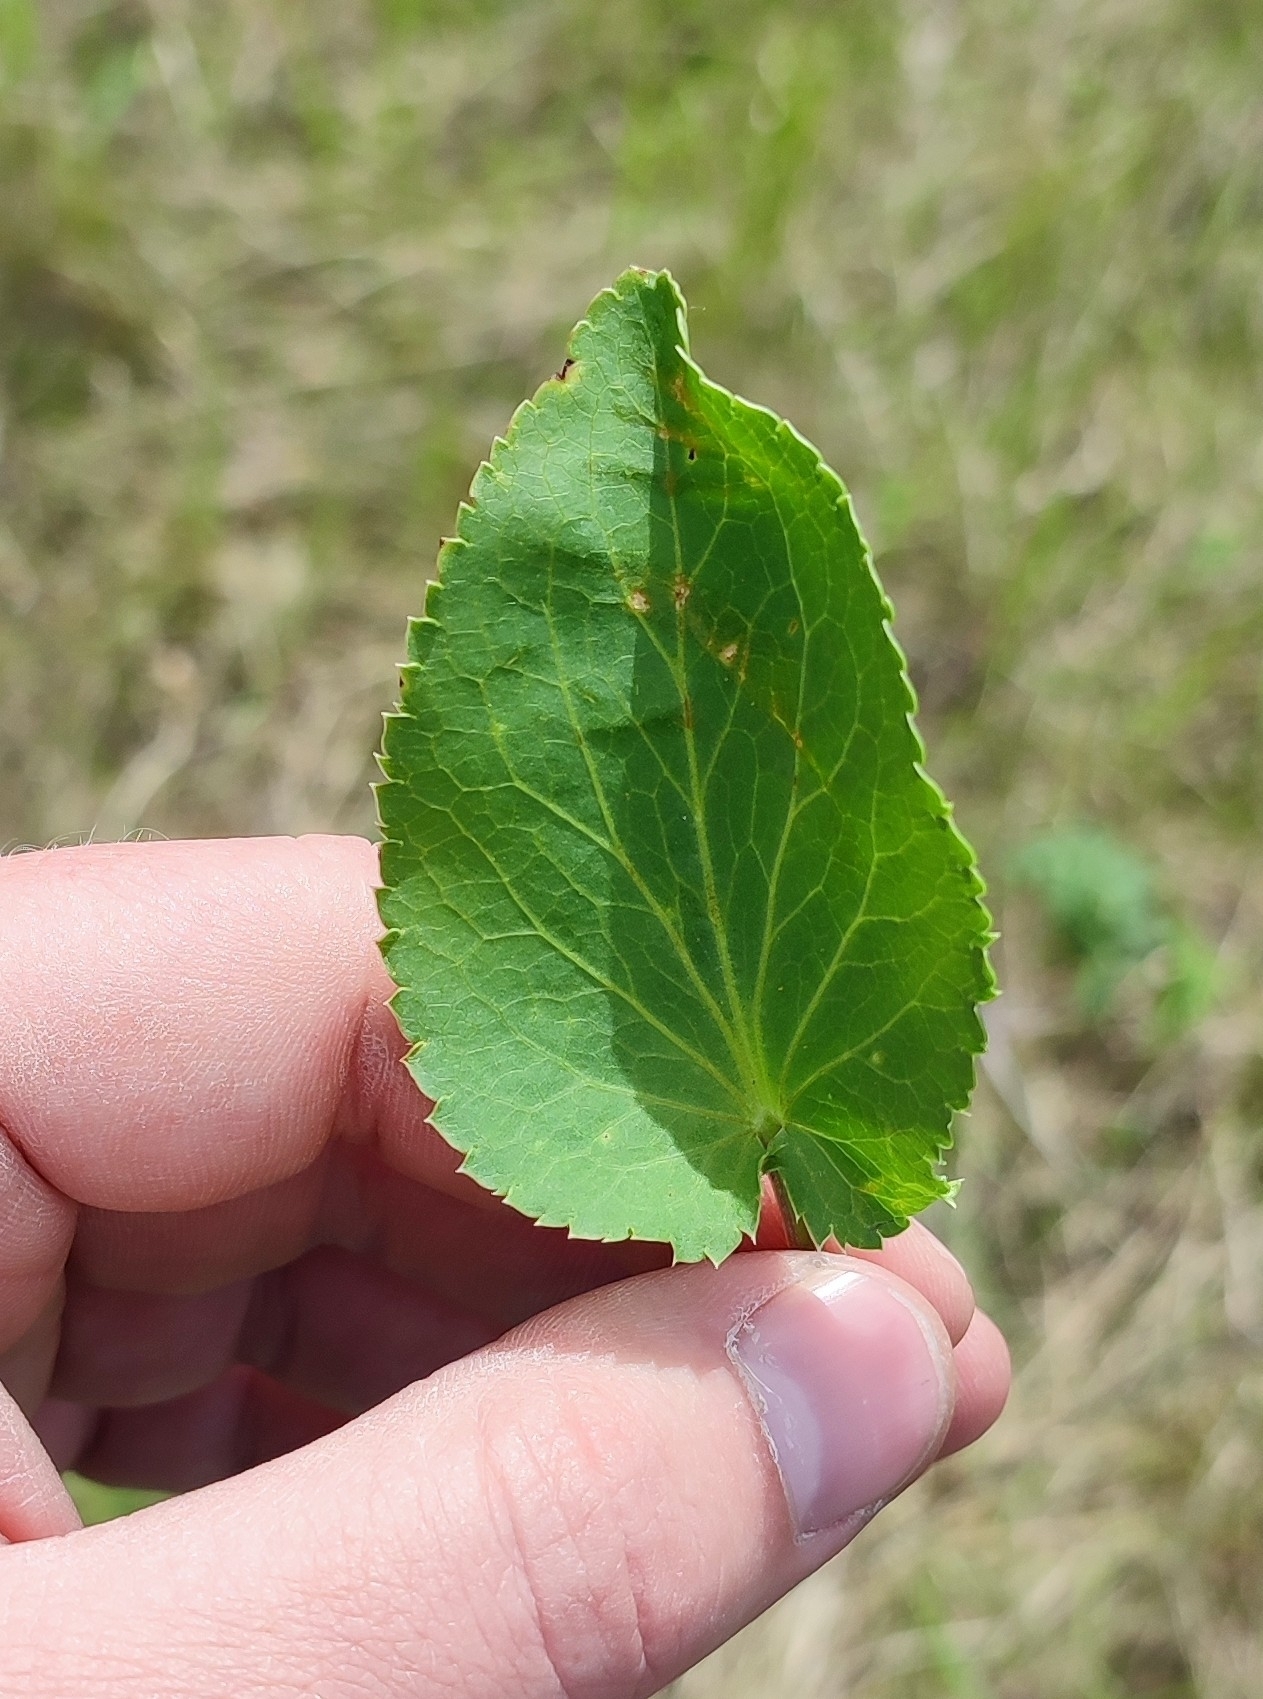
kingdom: Plantae
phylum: Tracheophyta
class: Magnoliopsida
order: Apiales
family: Apiaceae
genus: Eryngium
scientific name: Eryngium planum
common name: Blue eryngo
